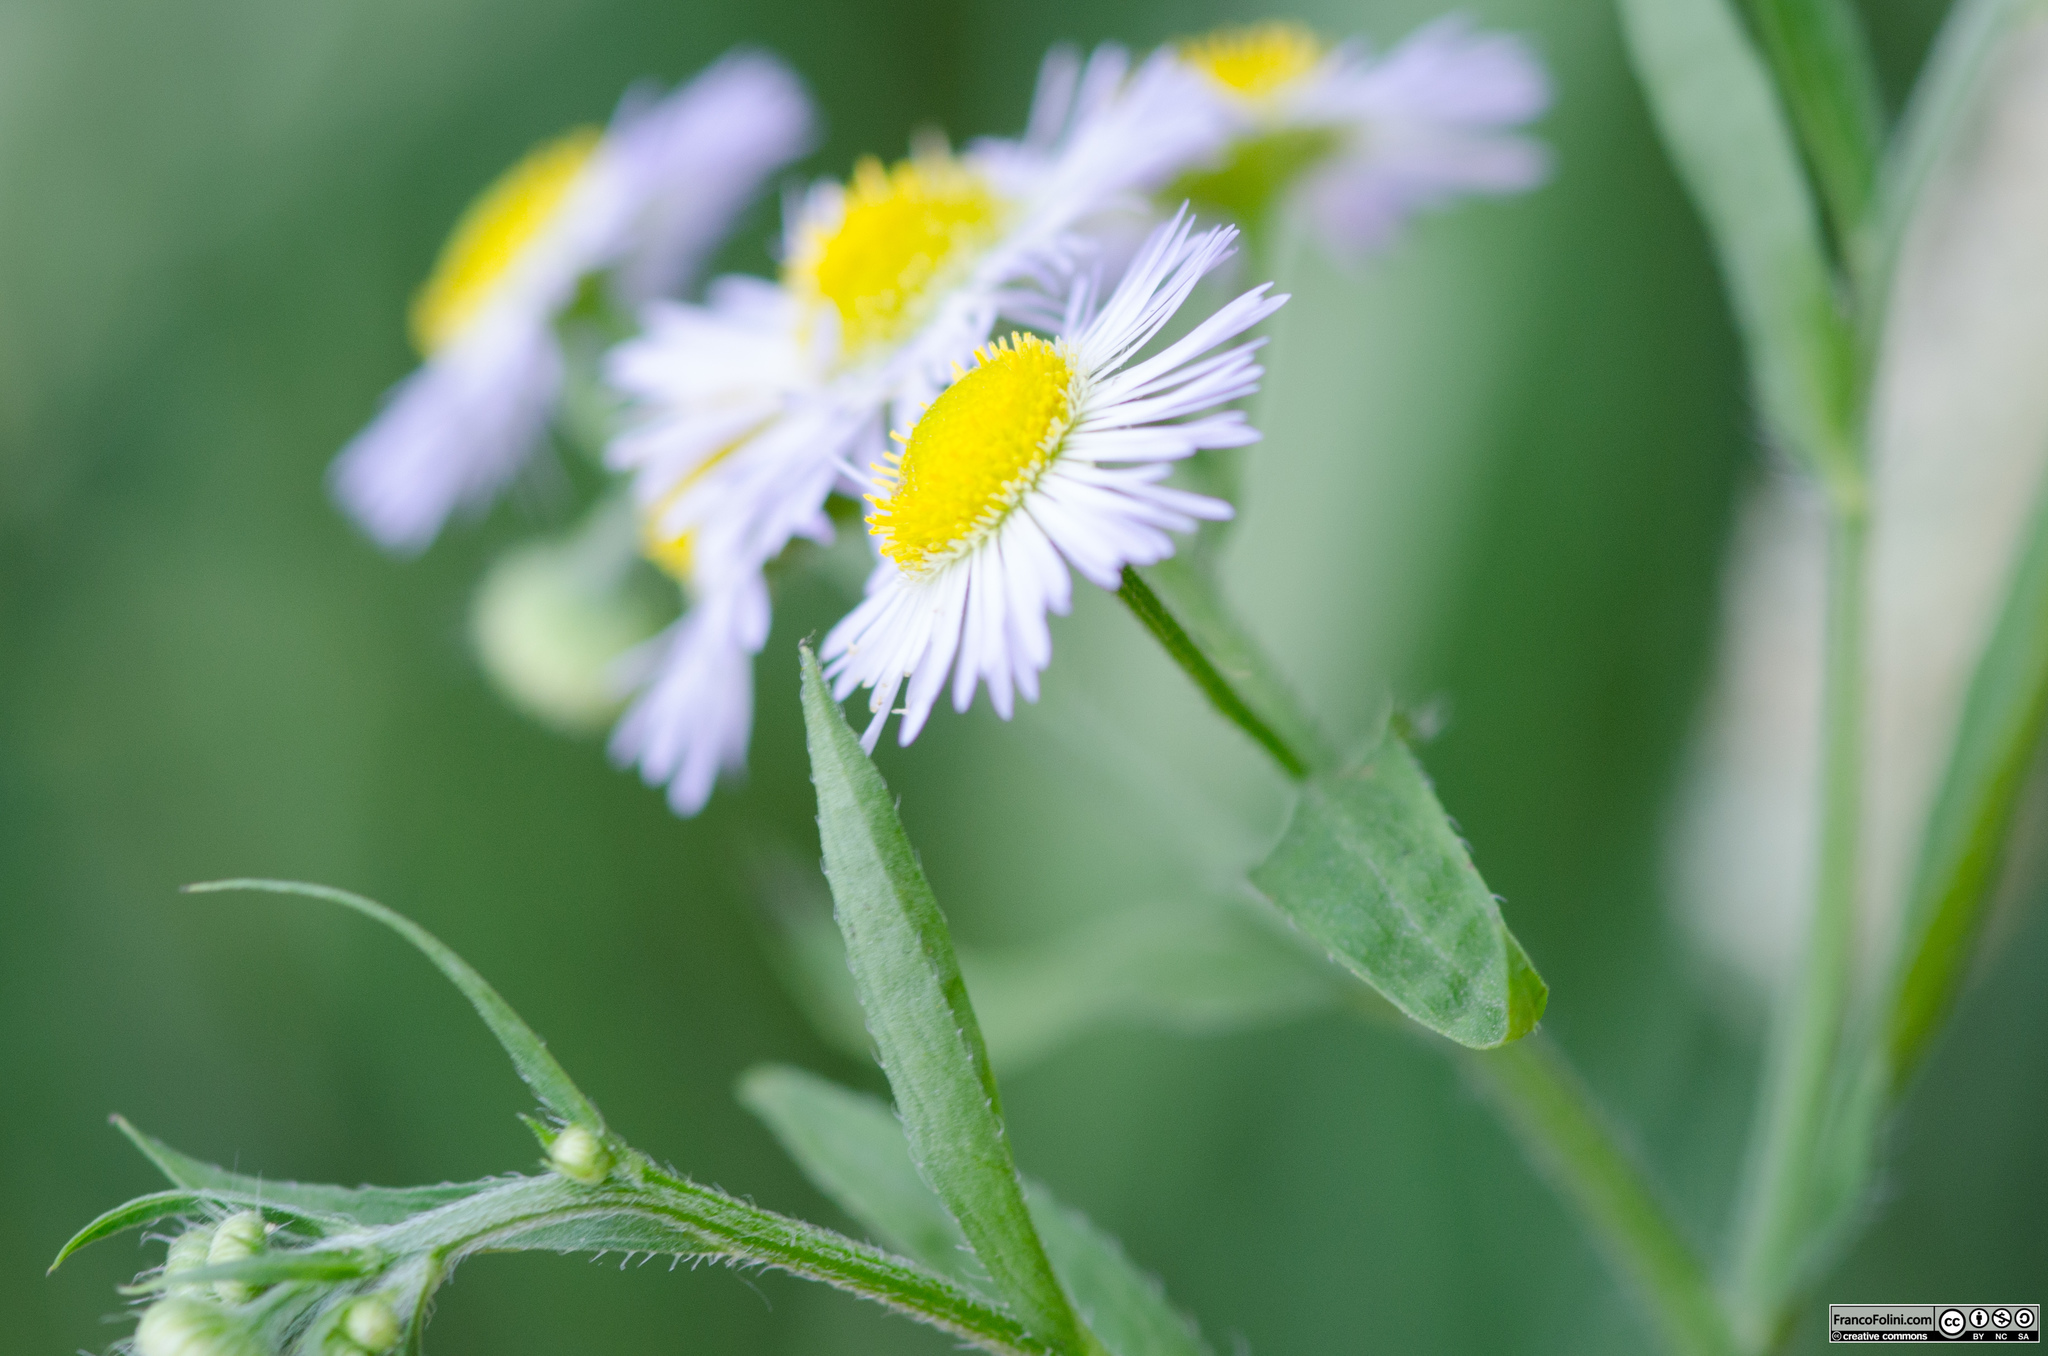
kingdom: Plantae
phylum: Tracheophyta
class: Magnoliopsida
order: Asterales
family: Asteraceae
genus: Erigeron
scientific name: Erigeron annuus
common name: Tall fleabane
